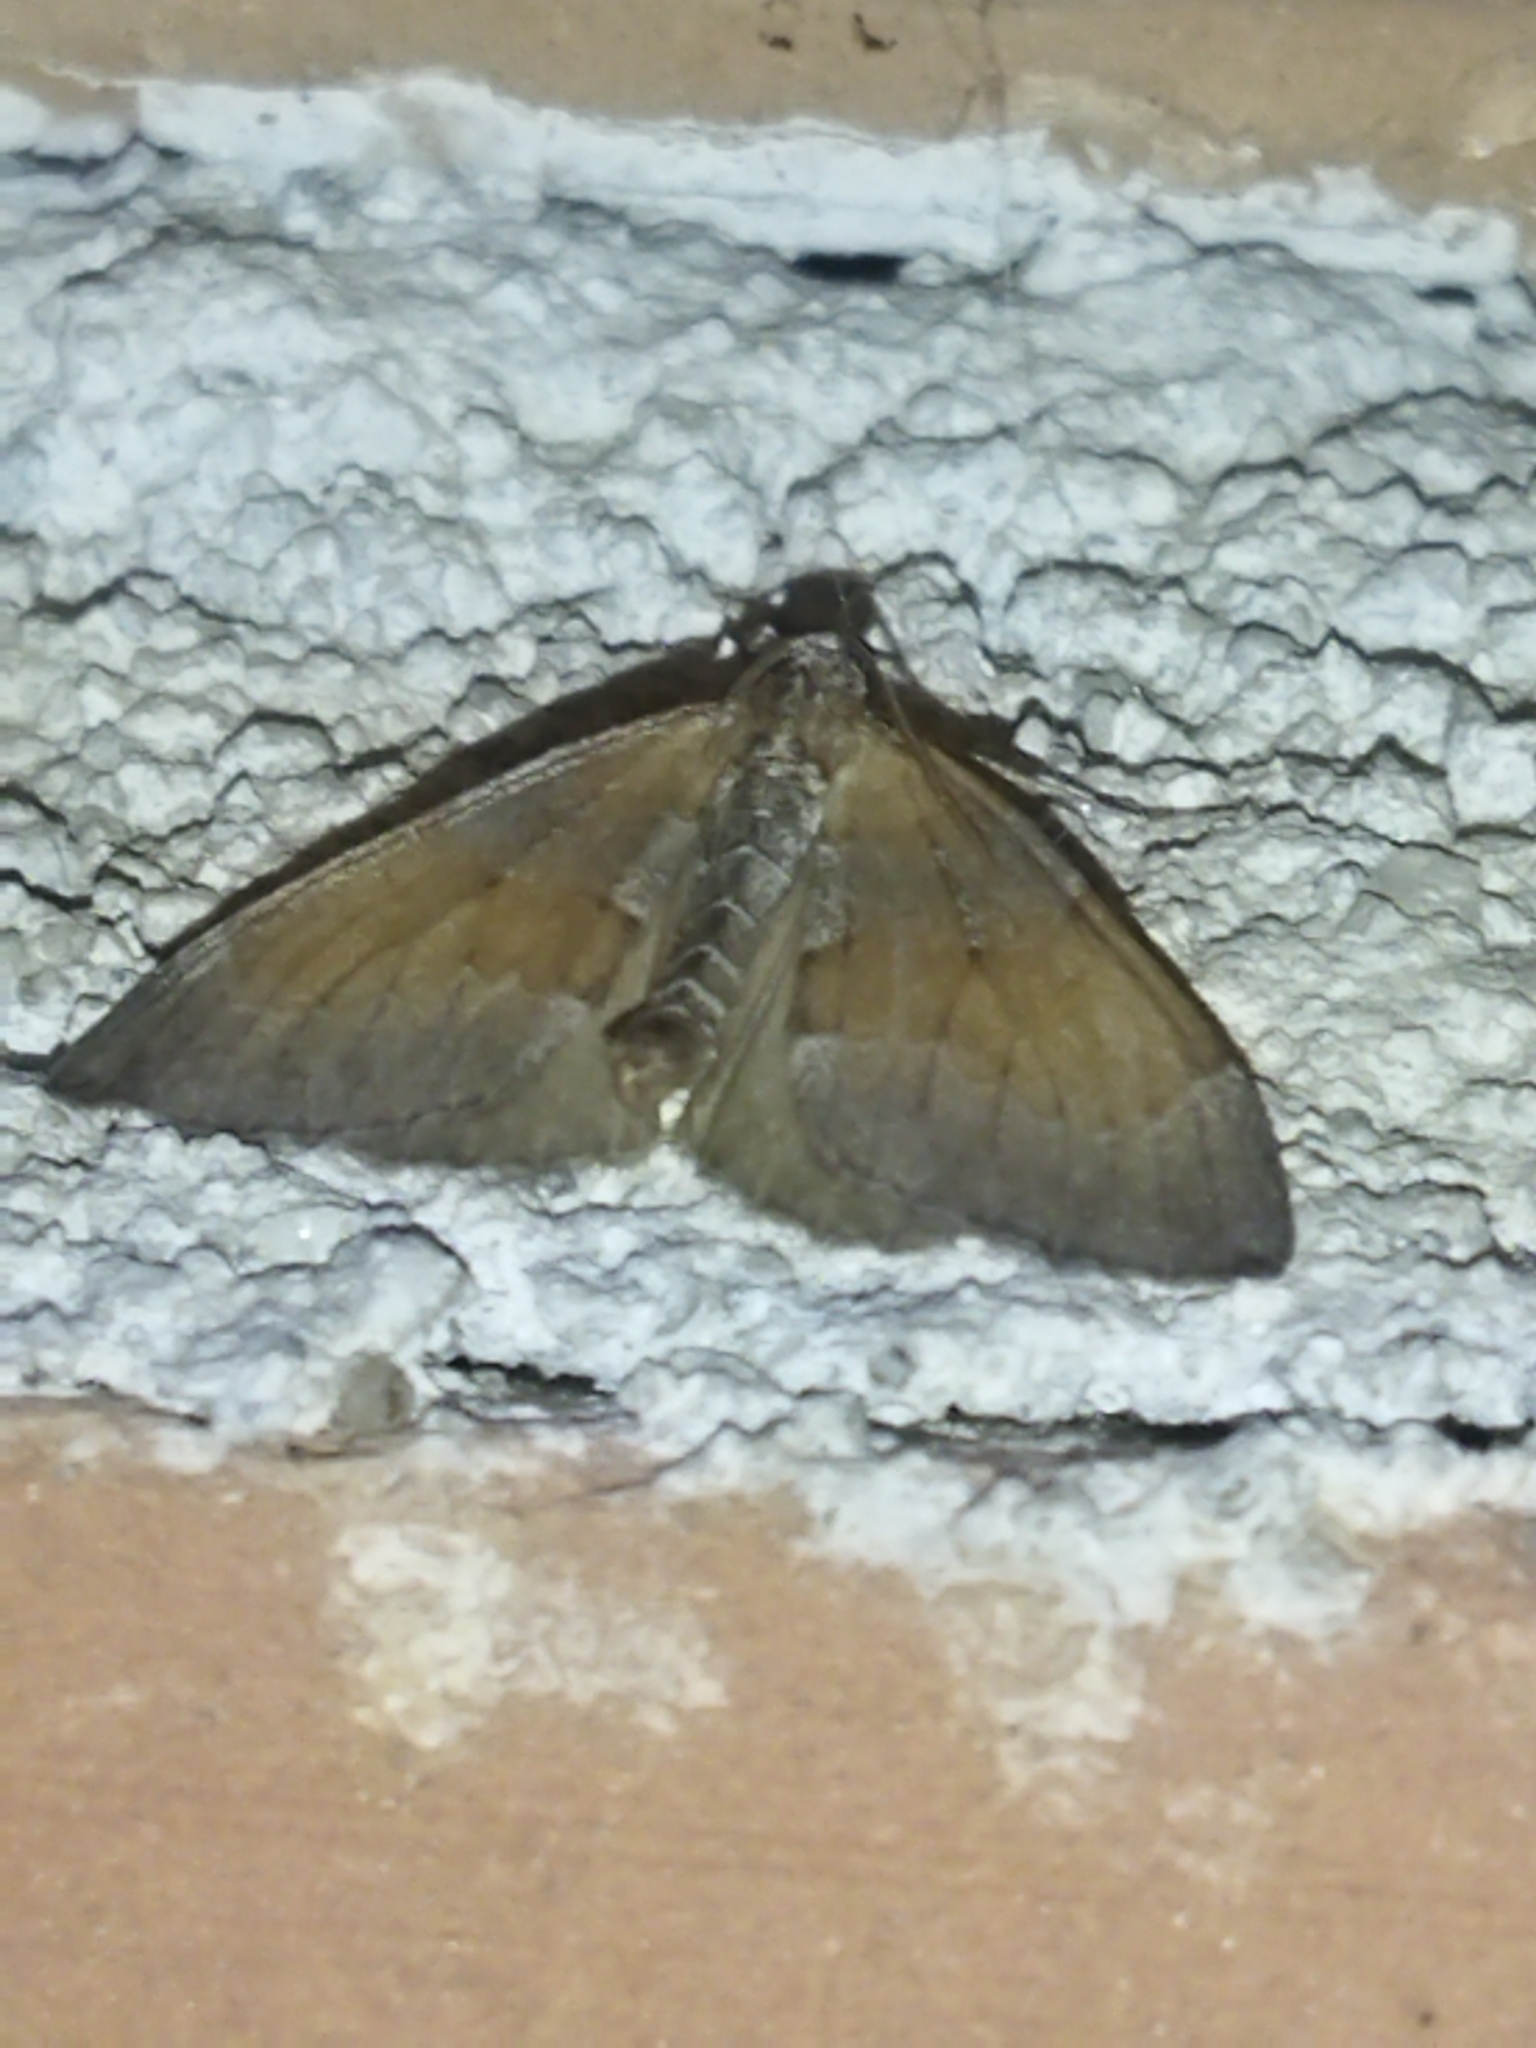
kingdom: Animalia
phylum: Arthropoda
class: Insecta
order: Lepidoptera
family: Geometridae
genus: Pennithera
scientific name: Pennithera firmata
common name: Pine carpet
